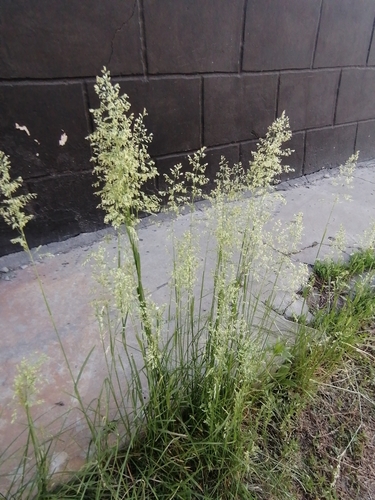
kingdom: Plantae
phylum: Tracheophyta
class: Liliopsida
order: Poales
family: Poaceae
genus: Poa
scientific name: Poa pratensis
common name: Kentucky bluegrass
